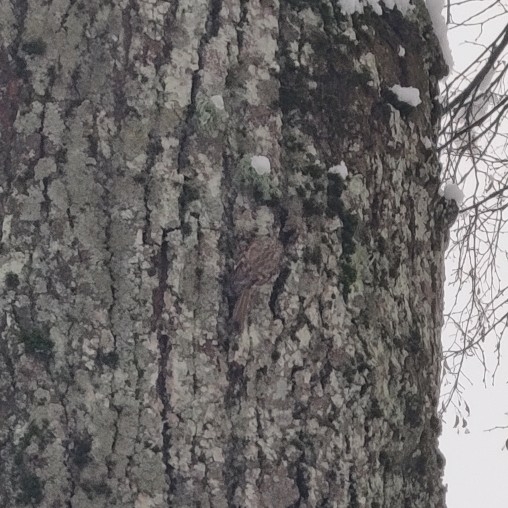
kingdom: Animalia
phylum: Chordata
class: Aves
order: Passeriformes
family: Certhiidae
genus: Certhia
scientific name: Certhia familiaris
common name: Eurasian treecreeper
